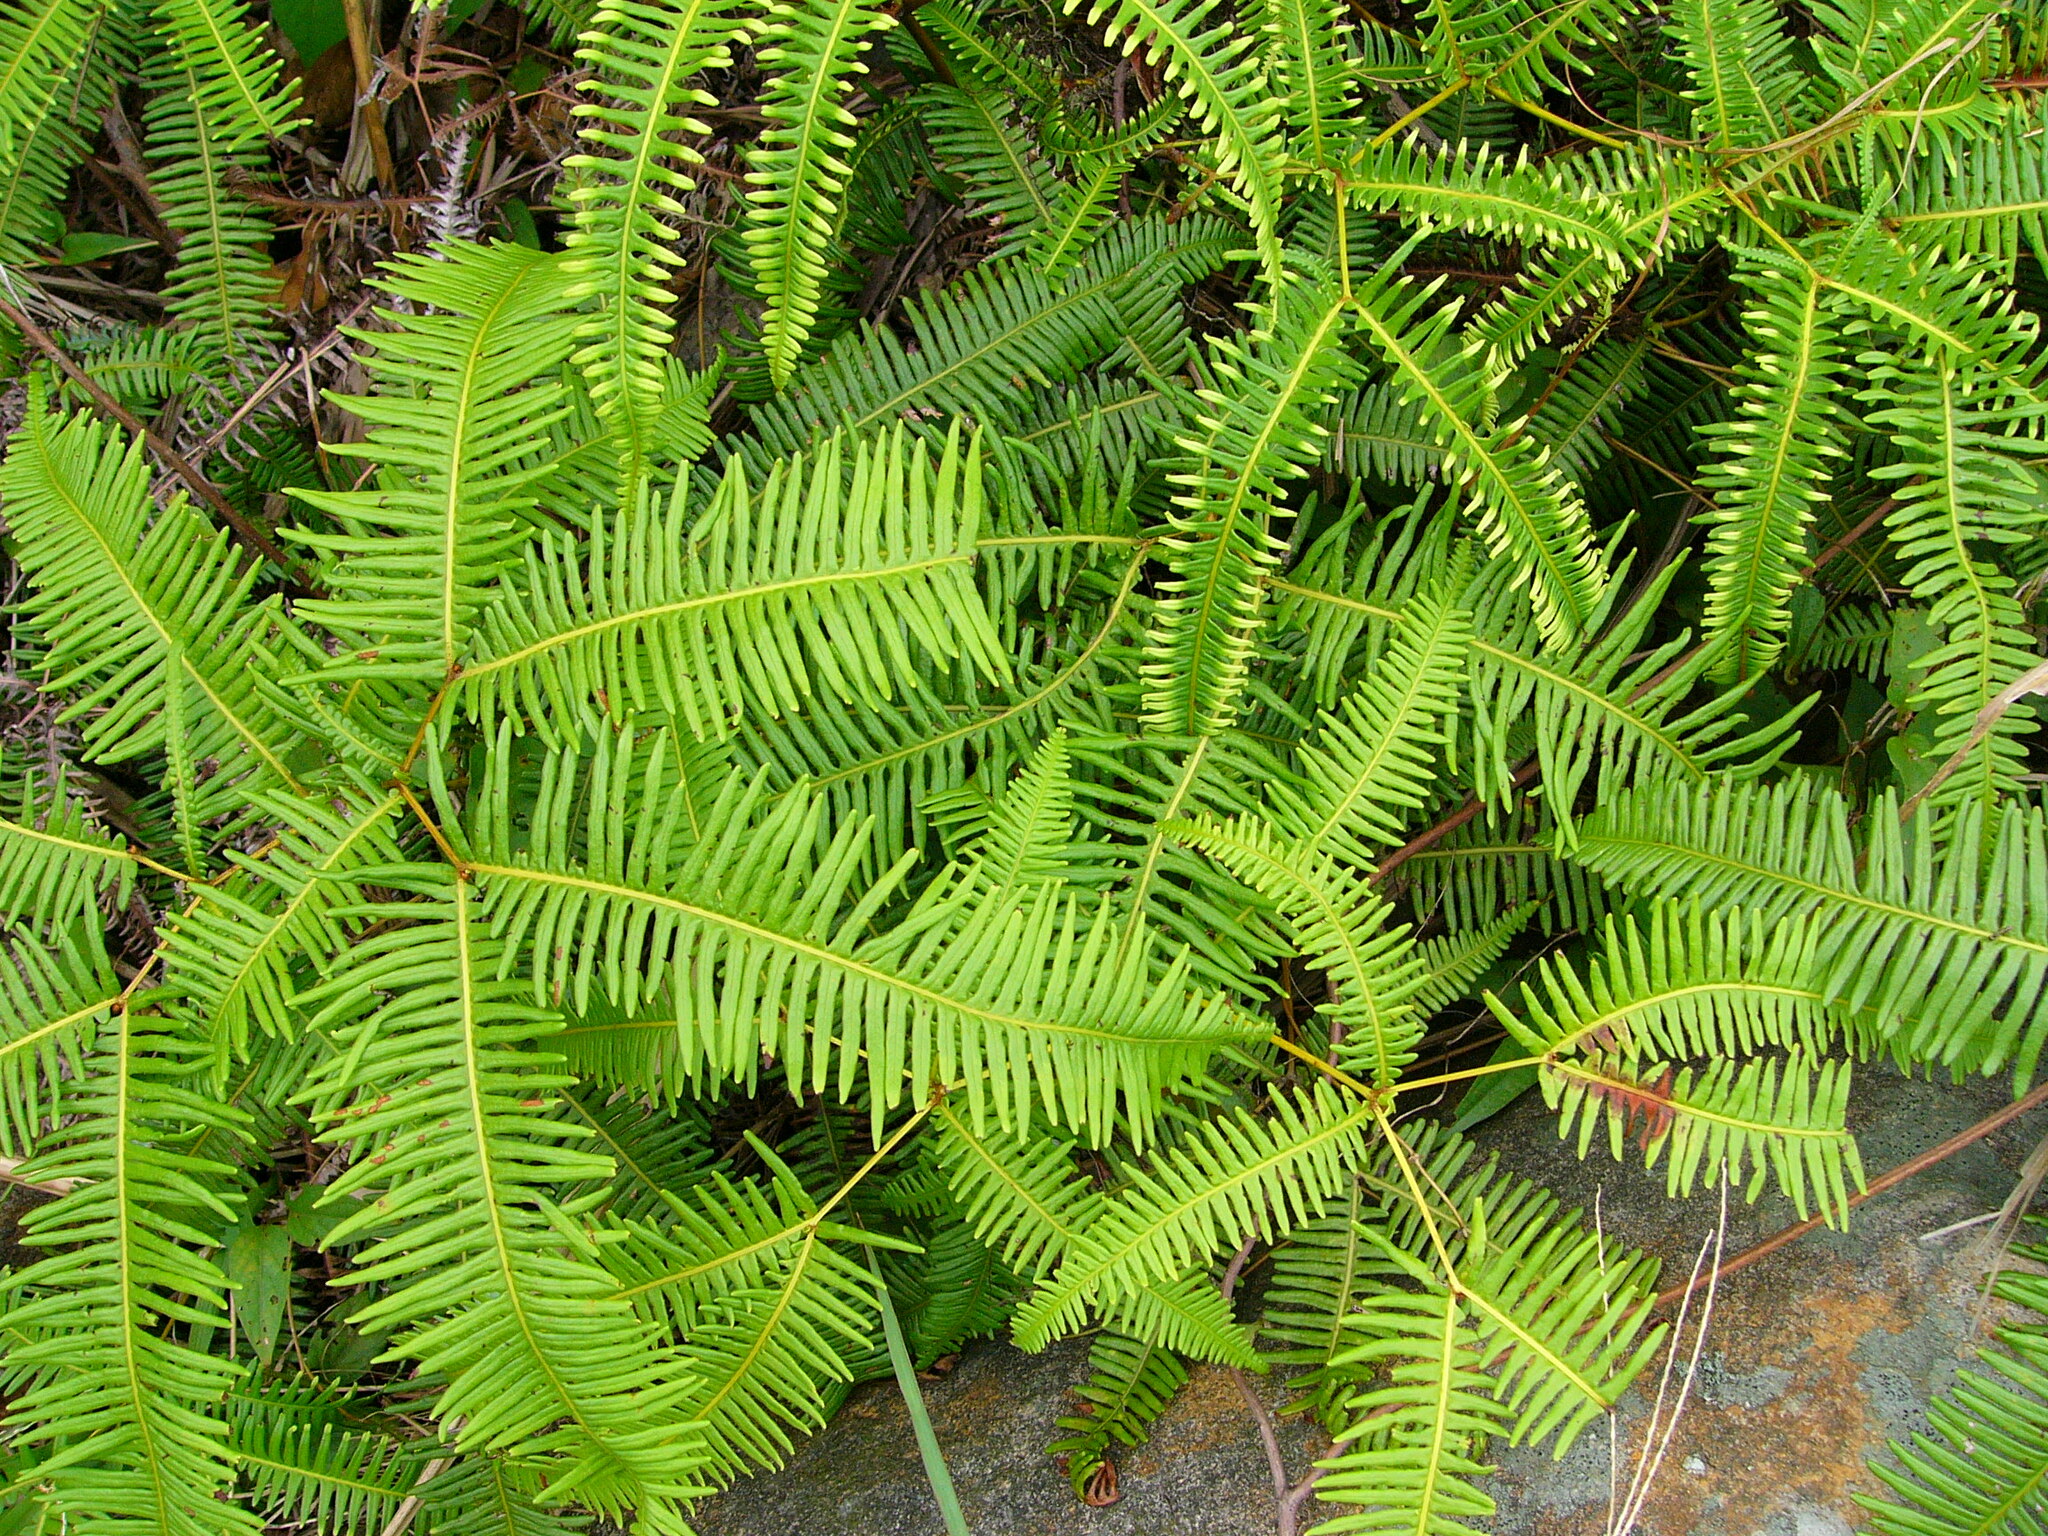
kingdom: Plantae
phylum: Tracheophyta
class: Polypodiopsida
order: Gleicheniales
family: Gleicheniaceae
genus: Dicranopteris
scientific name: Dicranopteris linearis
